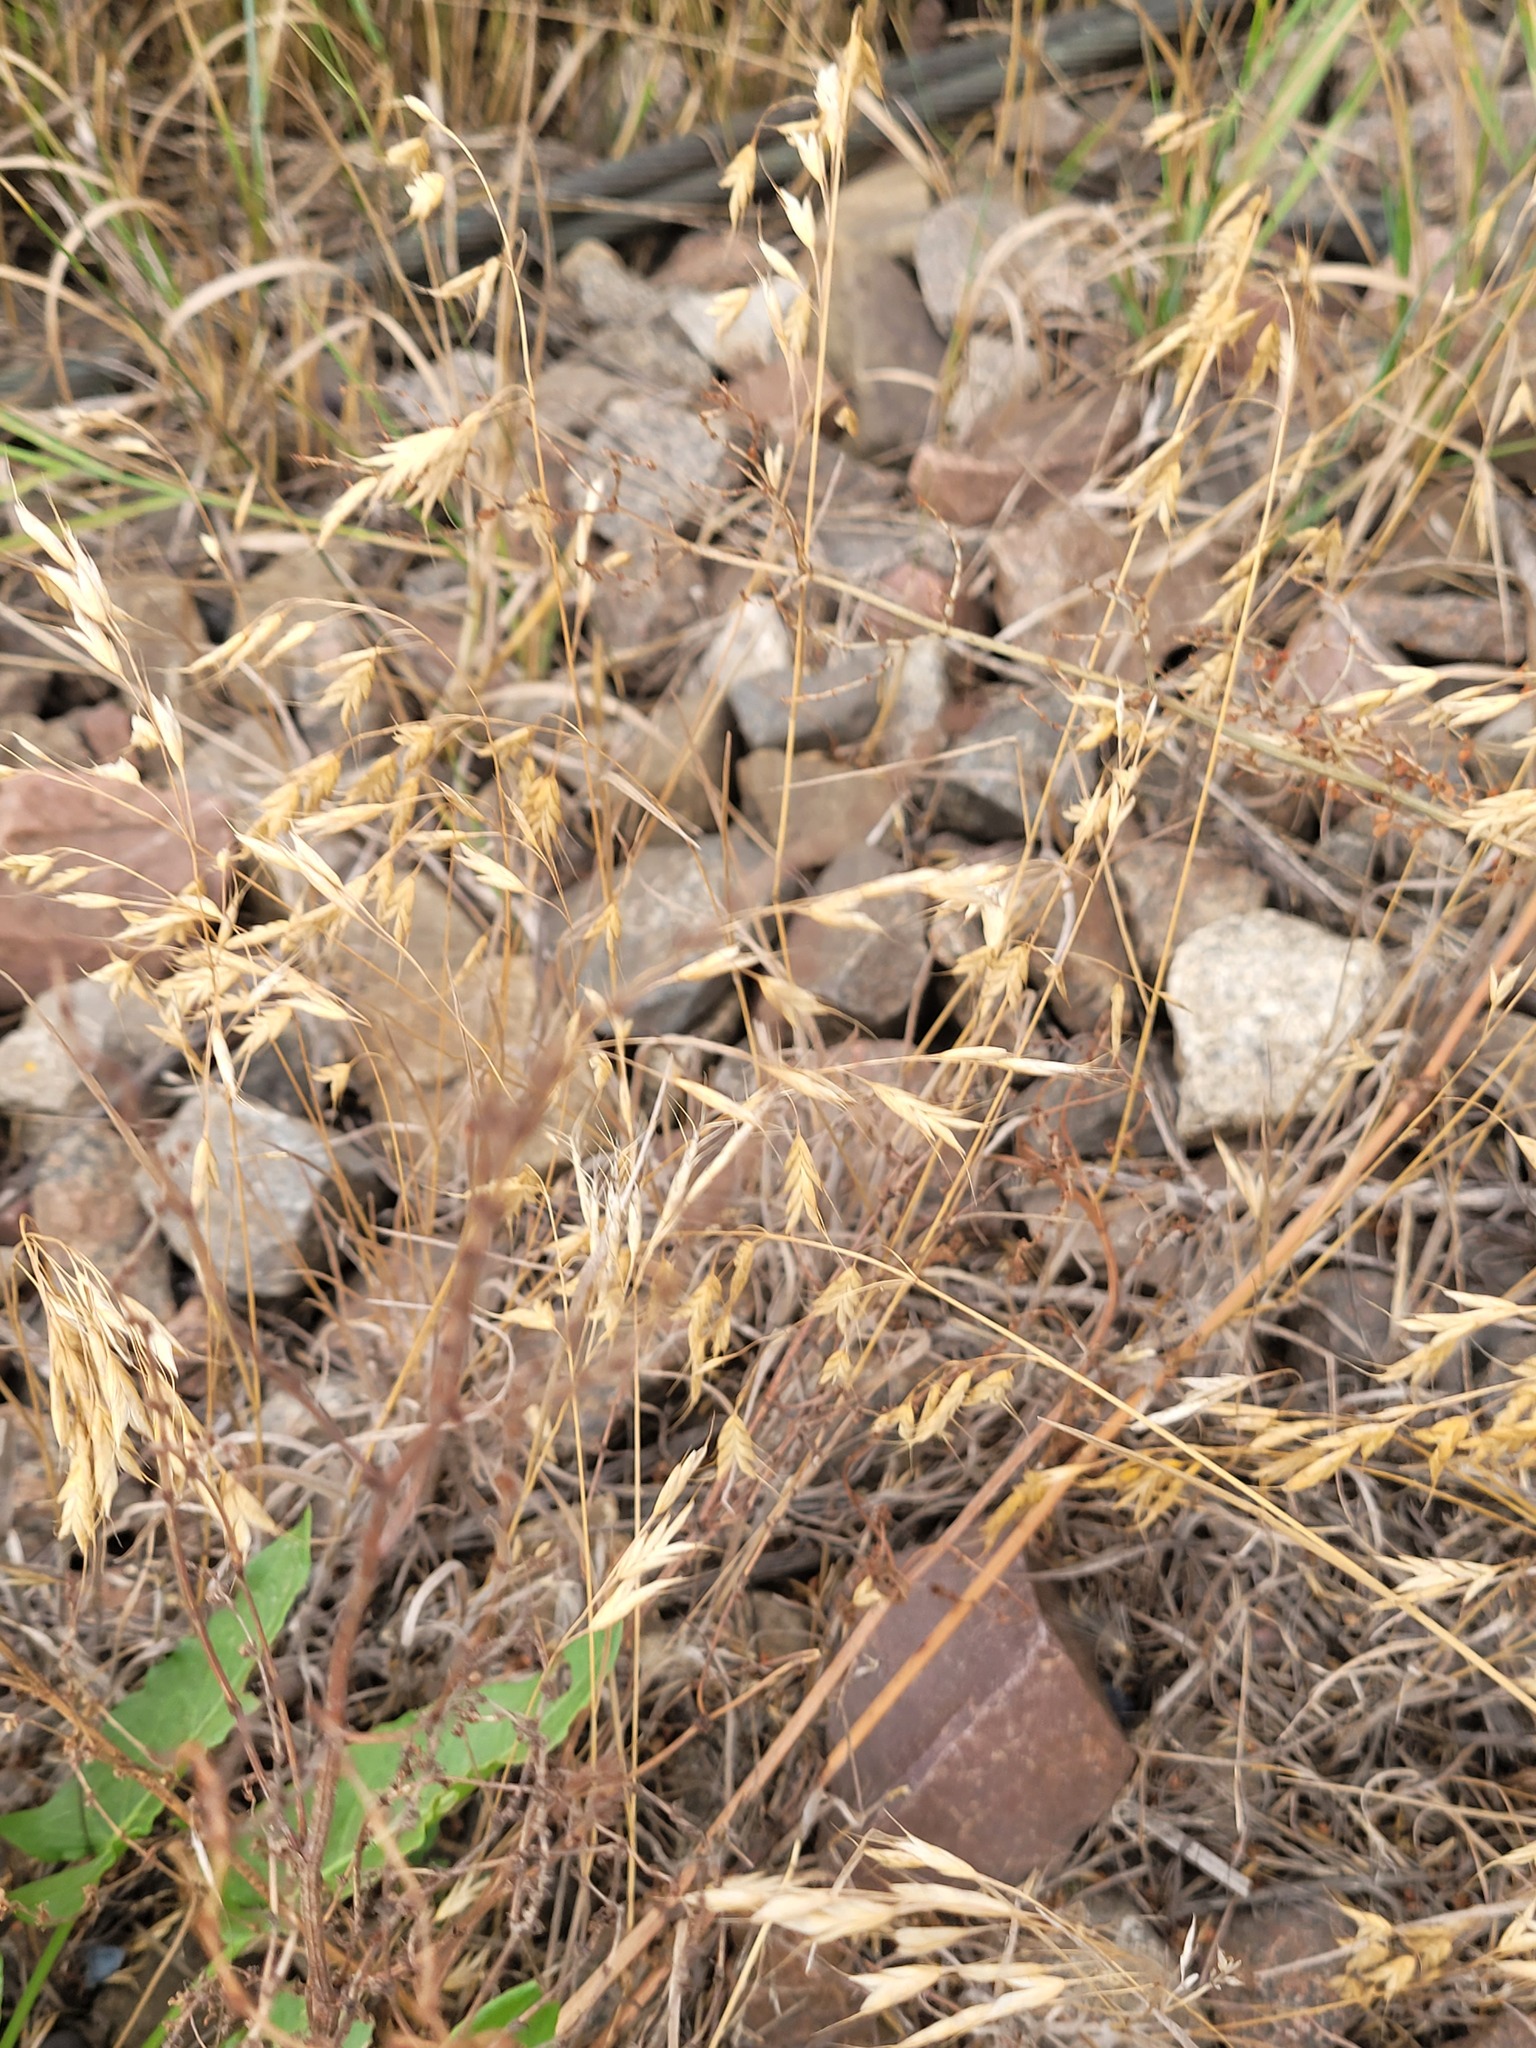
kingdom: Plantae
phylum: Tracheophyta
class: Liliopsida
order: Poales
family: Poaceae
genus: Bromus
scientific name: Bromus japonicus
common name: Japanese brome
